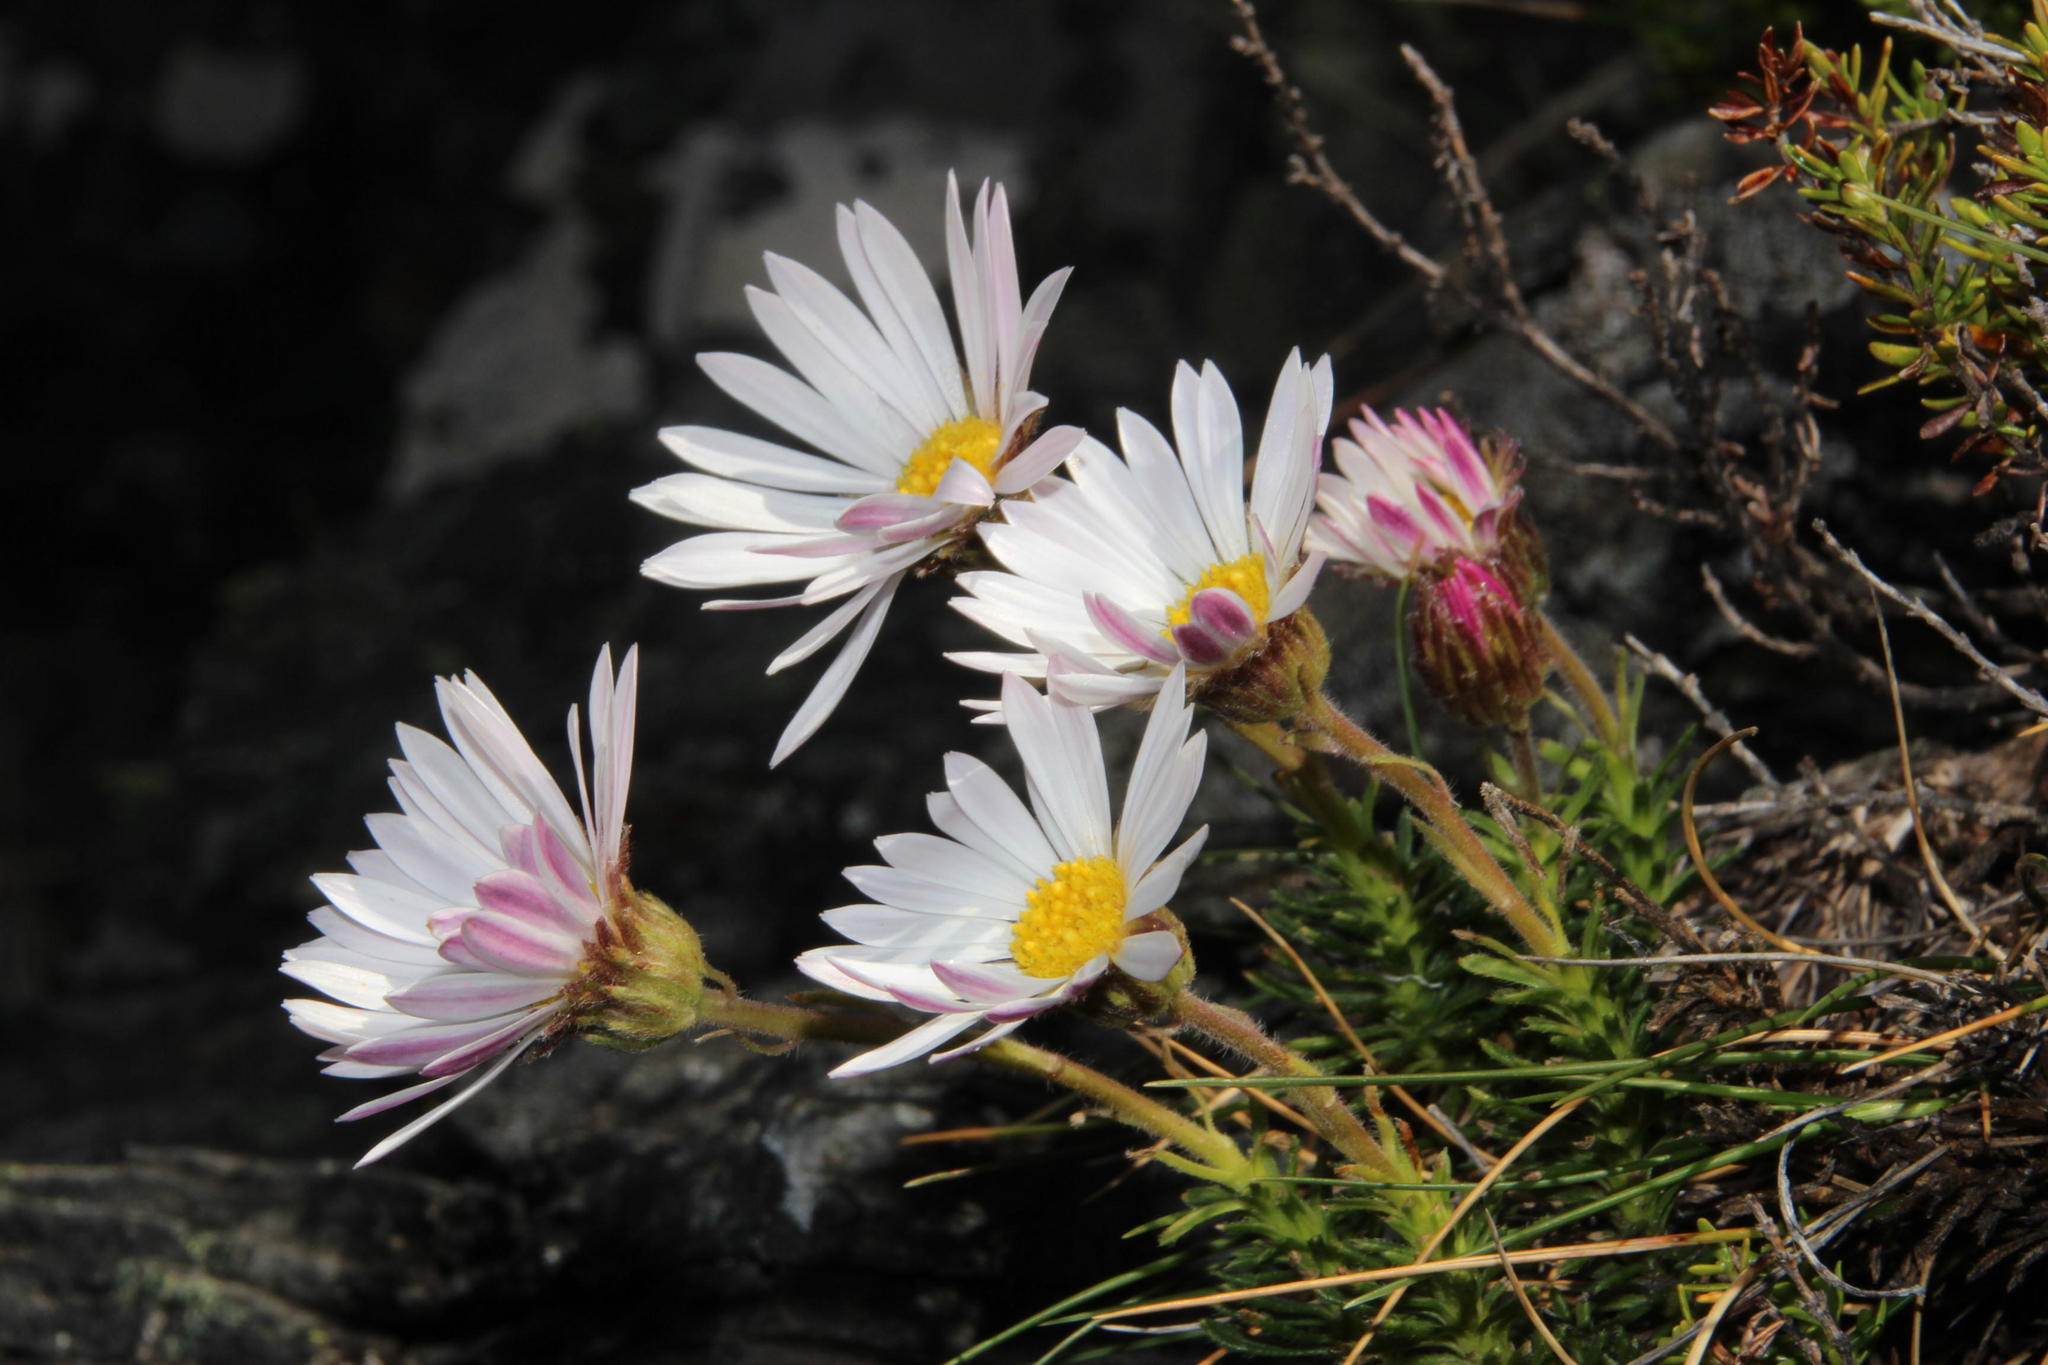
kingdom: Plantae
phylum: Tracheophyta
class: Magnoliopsida
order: Asterales
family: Asteraceae
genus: Polyarrhena
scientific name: Polyarrhena imbricata
